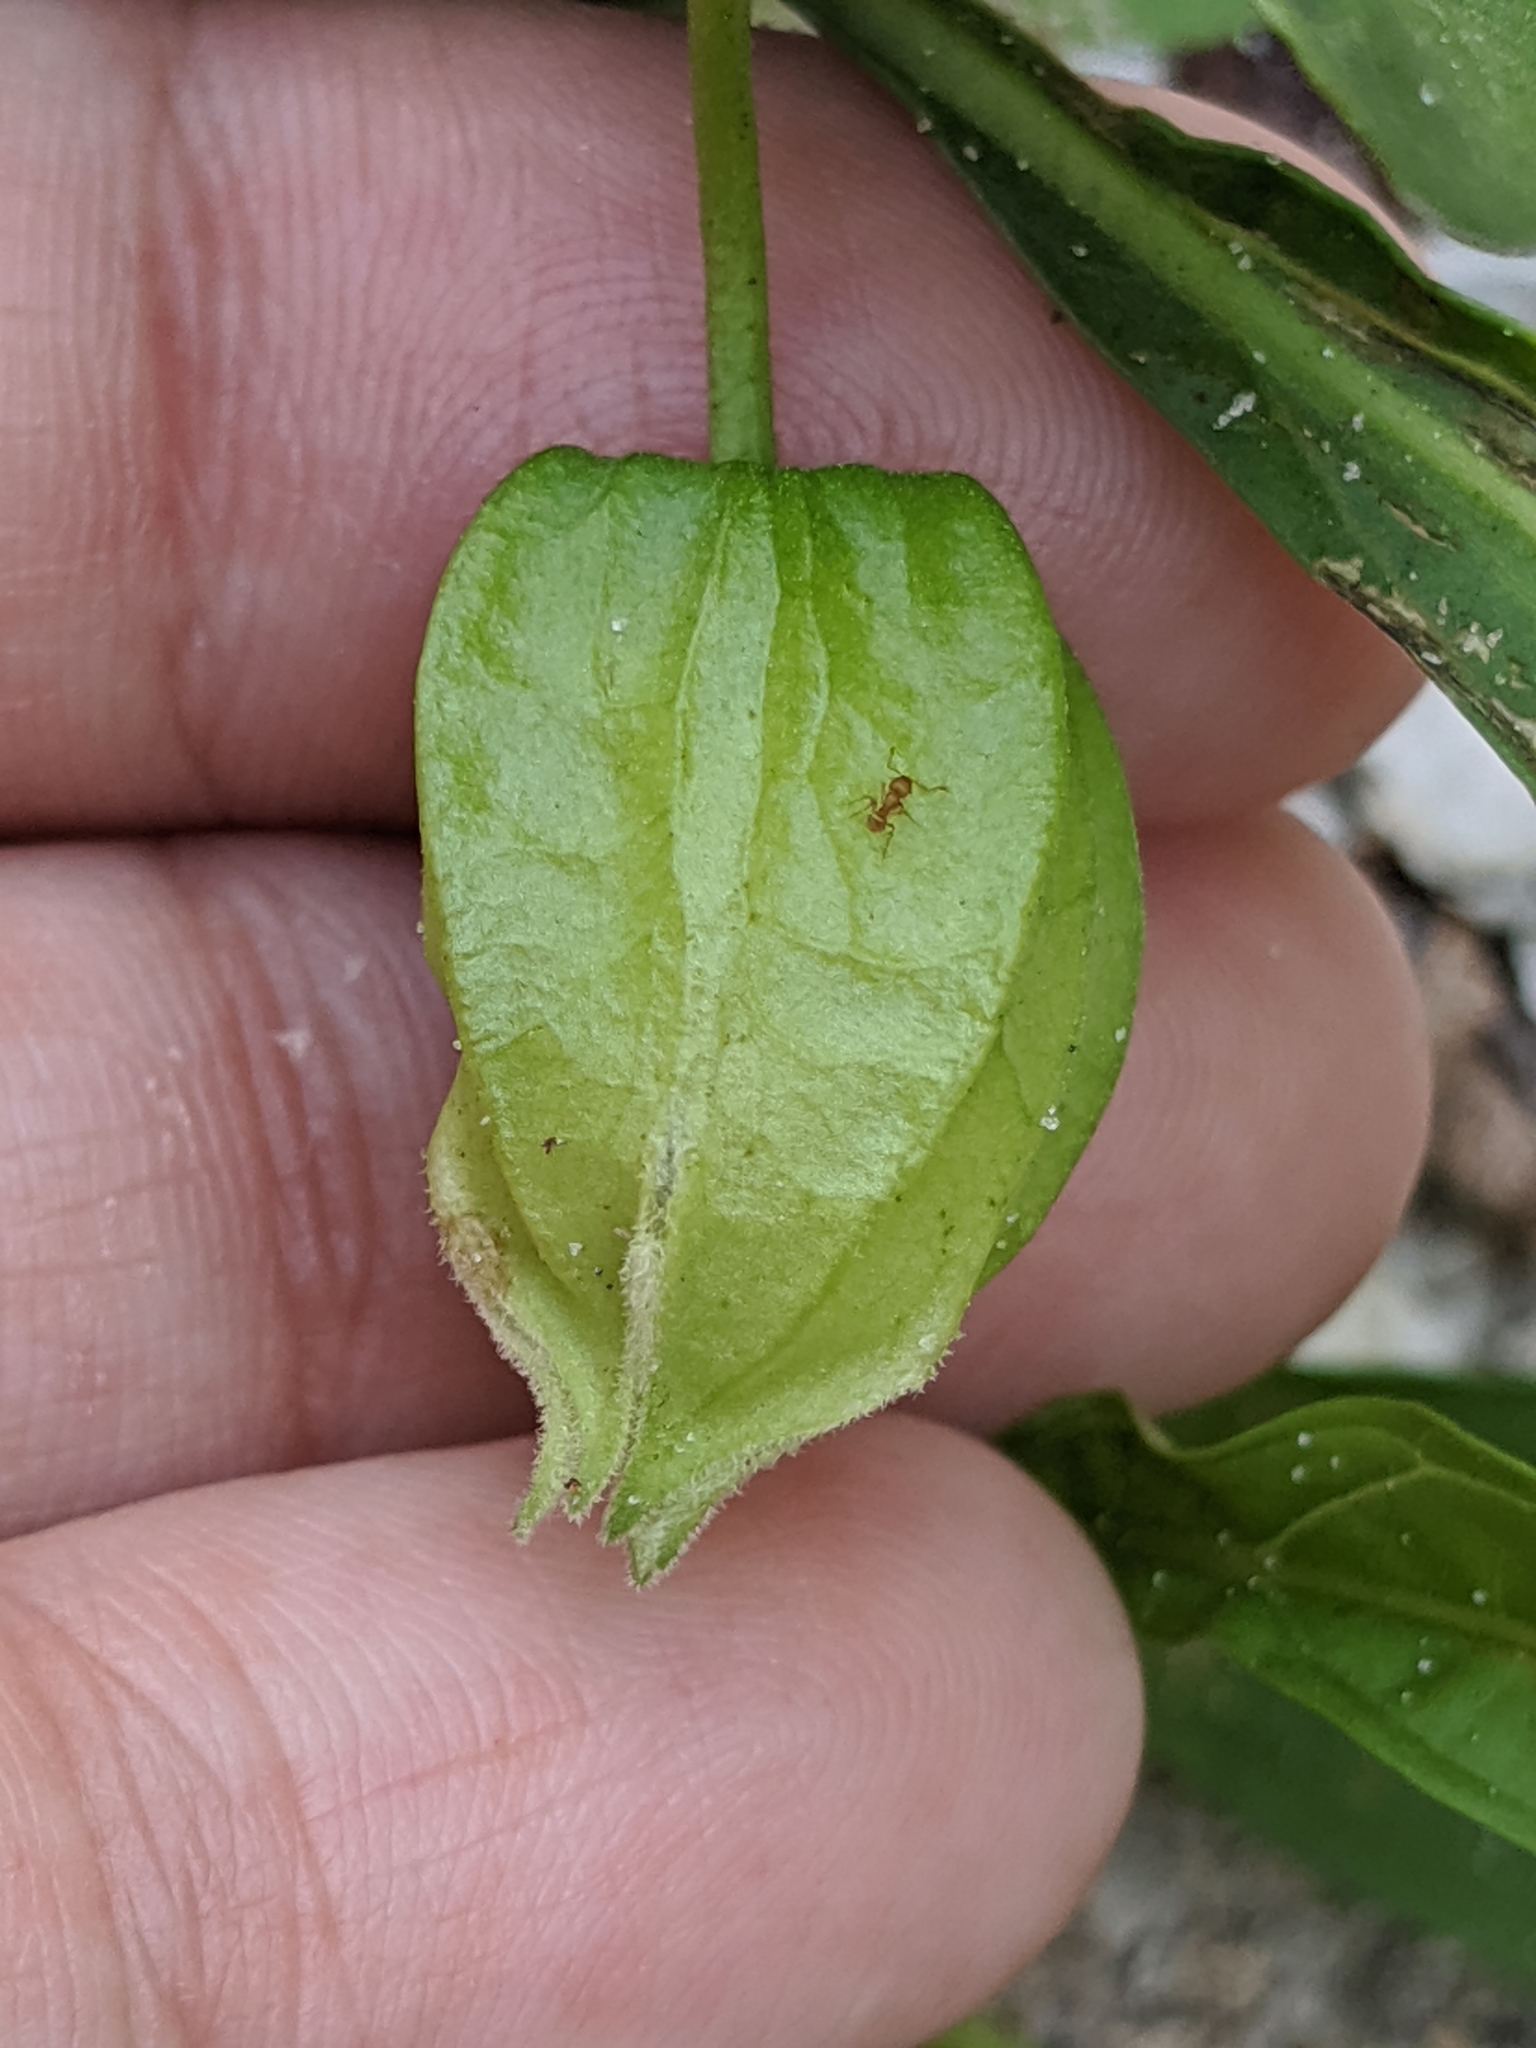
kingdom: Plantae
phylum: Tracheophyta
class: Magnoliopsida
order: Solanales
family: Solanaceae
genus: Physalis
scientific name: Physalis angustifolia
